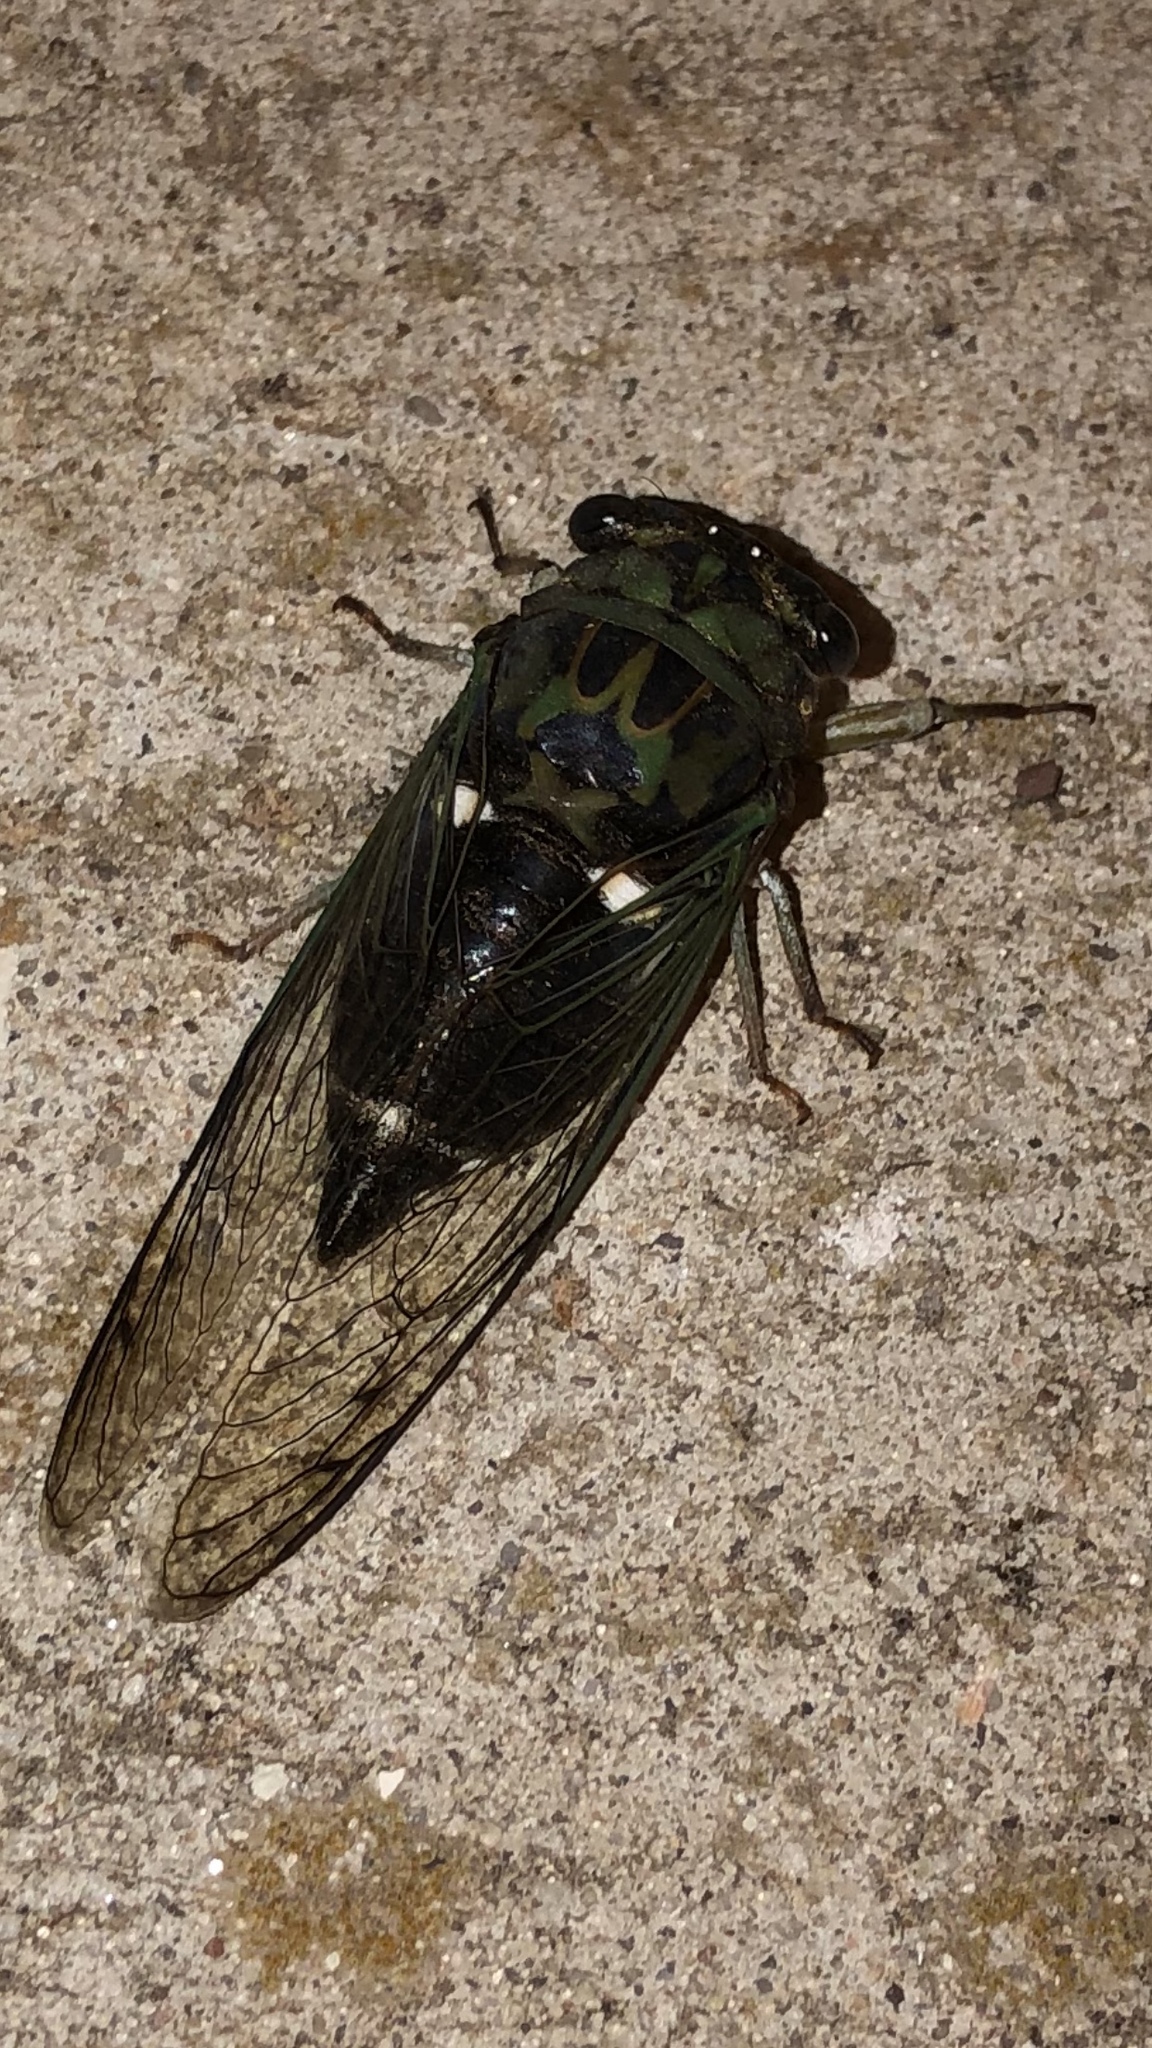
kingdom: Animalia
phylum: Arthropoda
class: Insecta
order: Hemiptera
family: Cicadidae
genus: Neotibicen
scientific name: Neotibicen pruinosus
